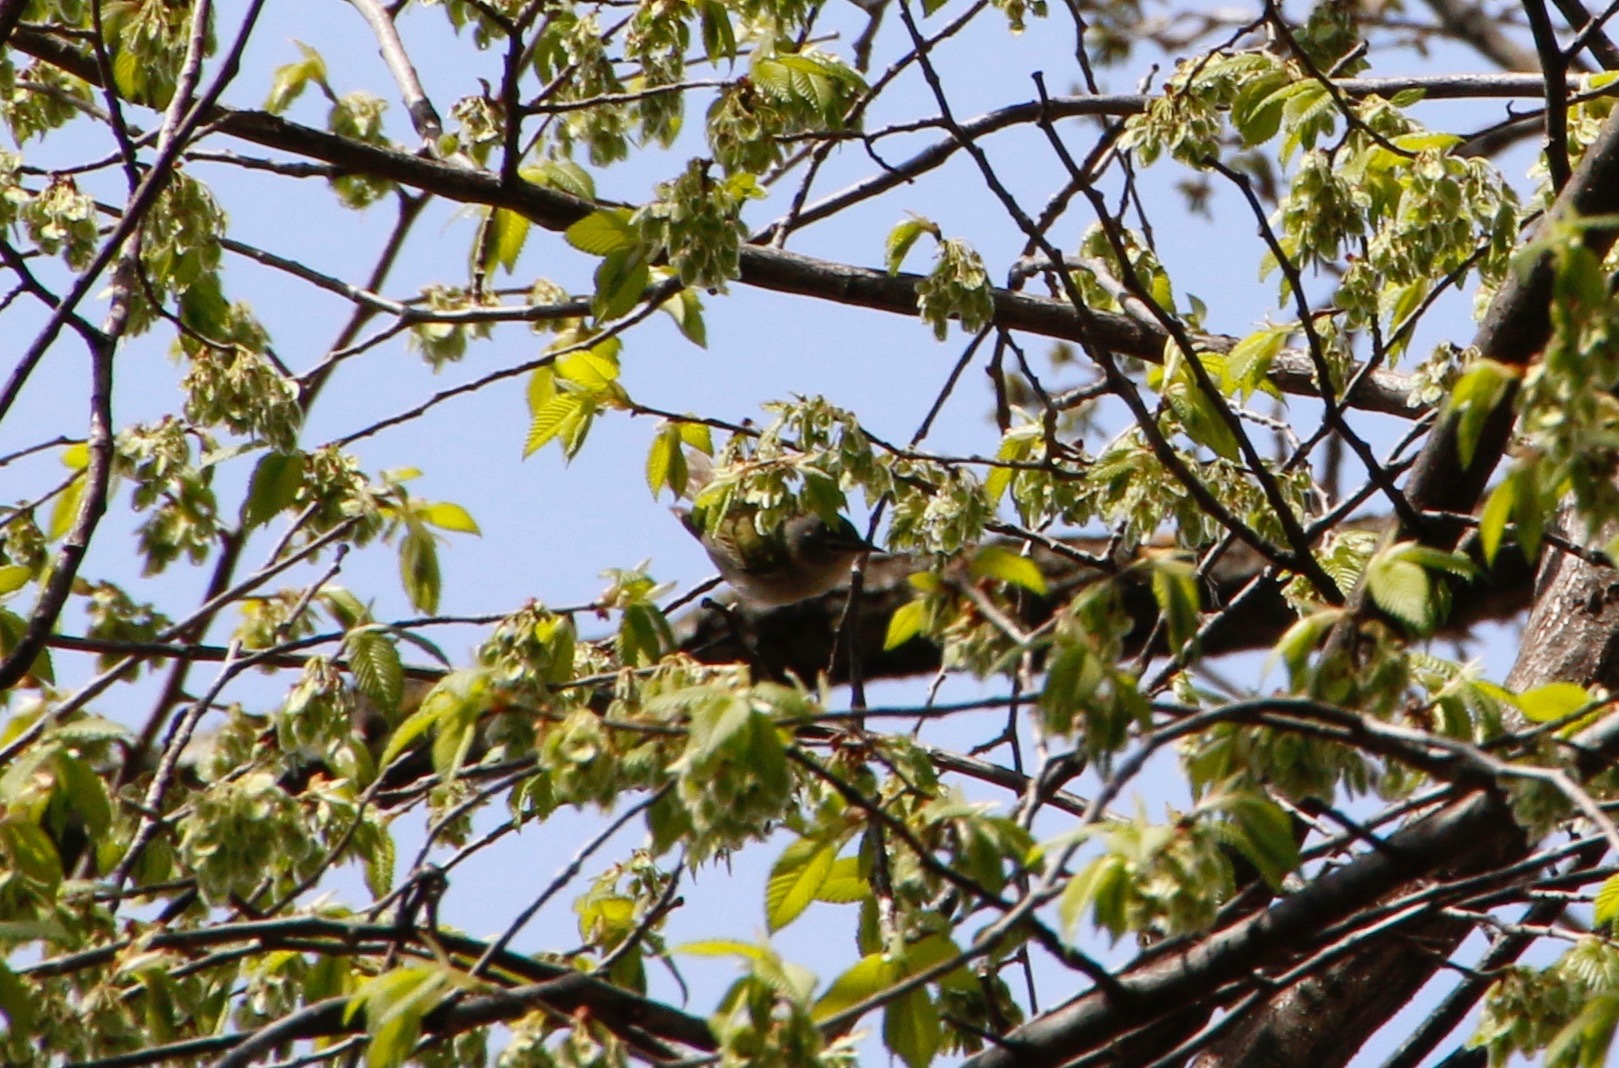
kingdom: Animalia
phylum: Chordata
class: Aves
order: Passeriformes
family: Parulidae
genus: Leiothlypis
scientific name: Leiothlypis peregrina
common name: Tennessee warbler
